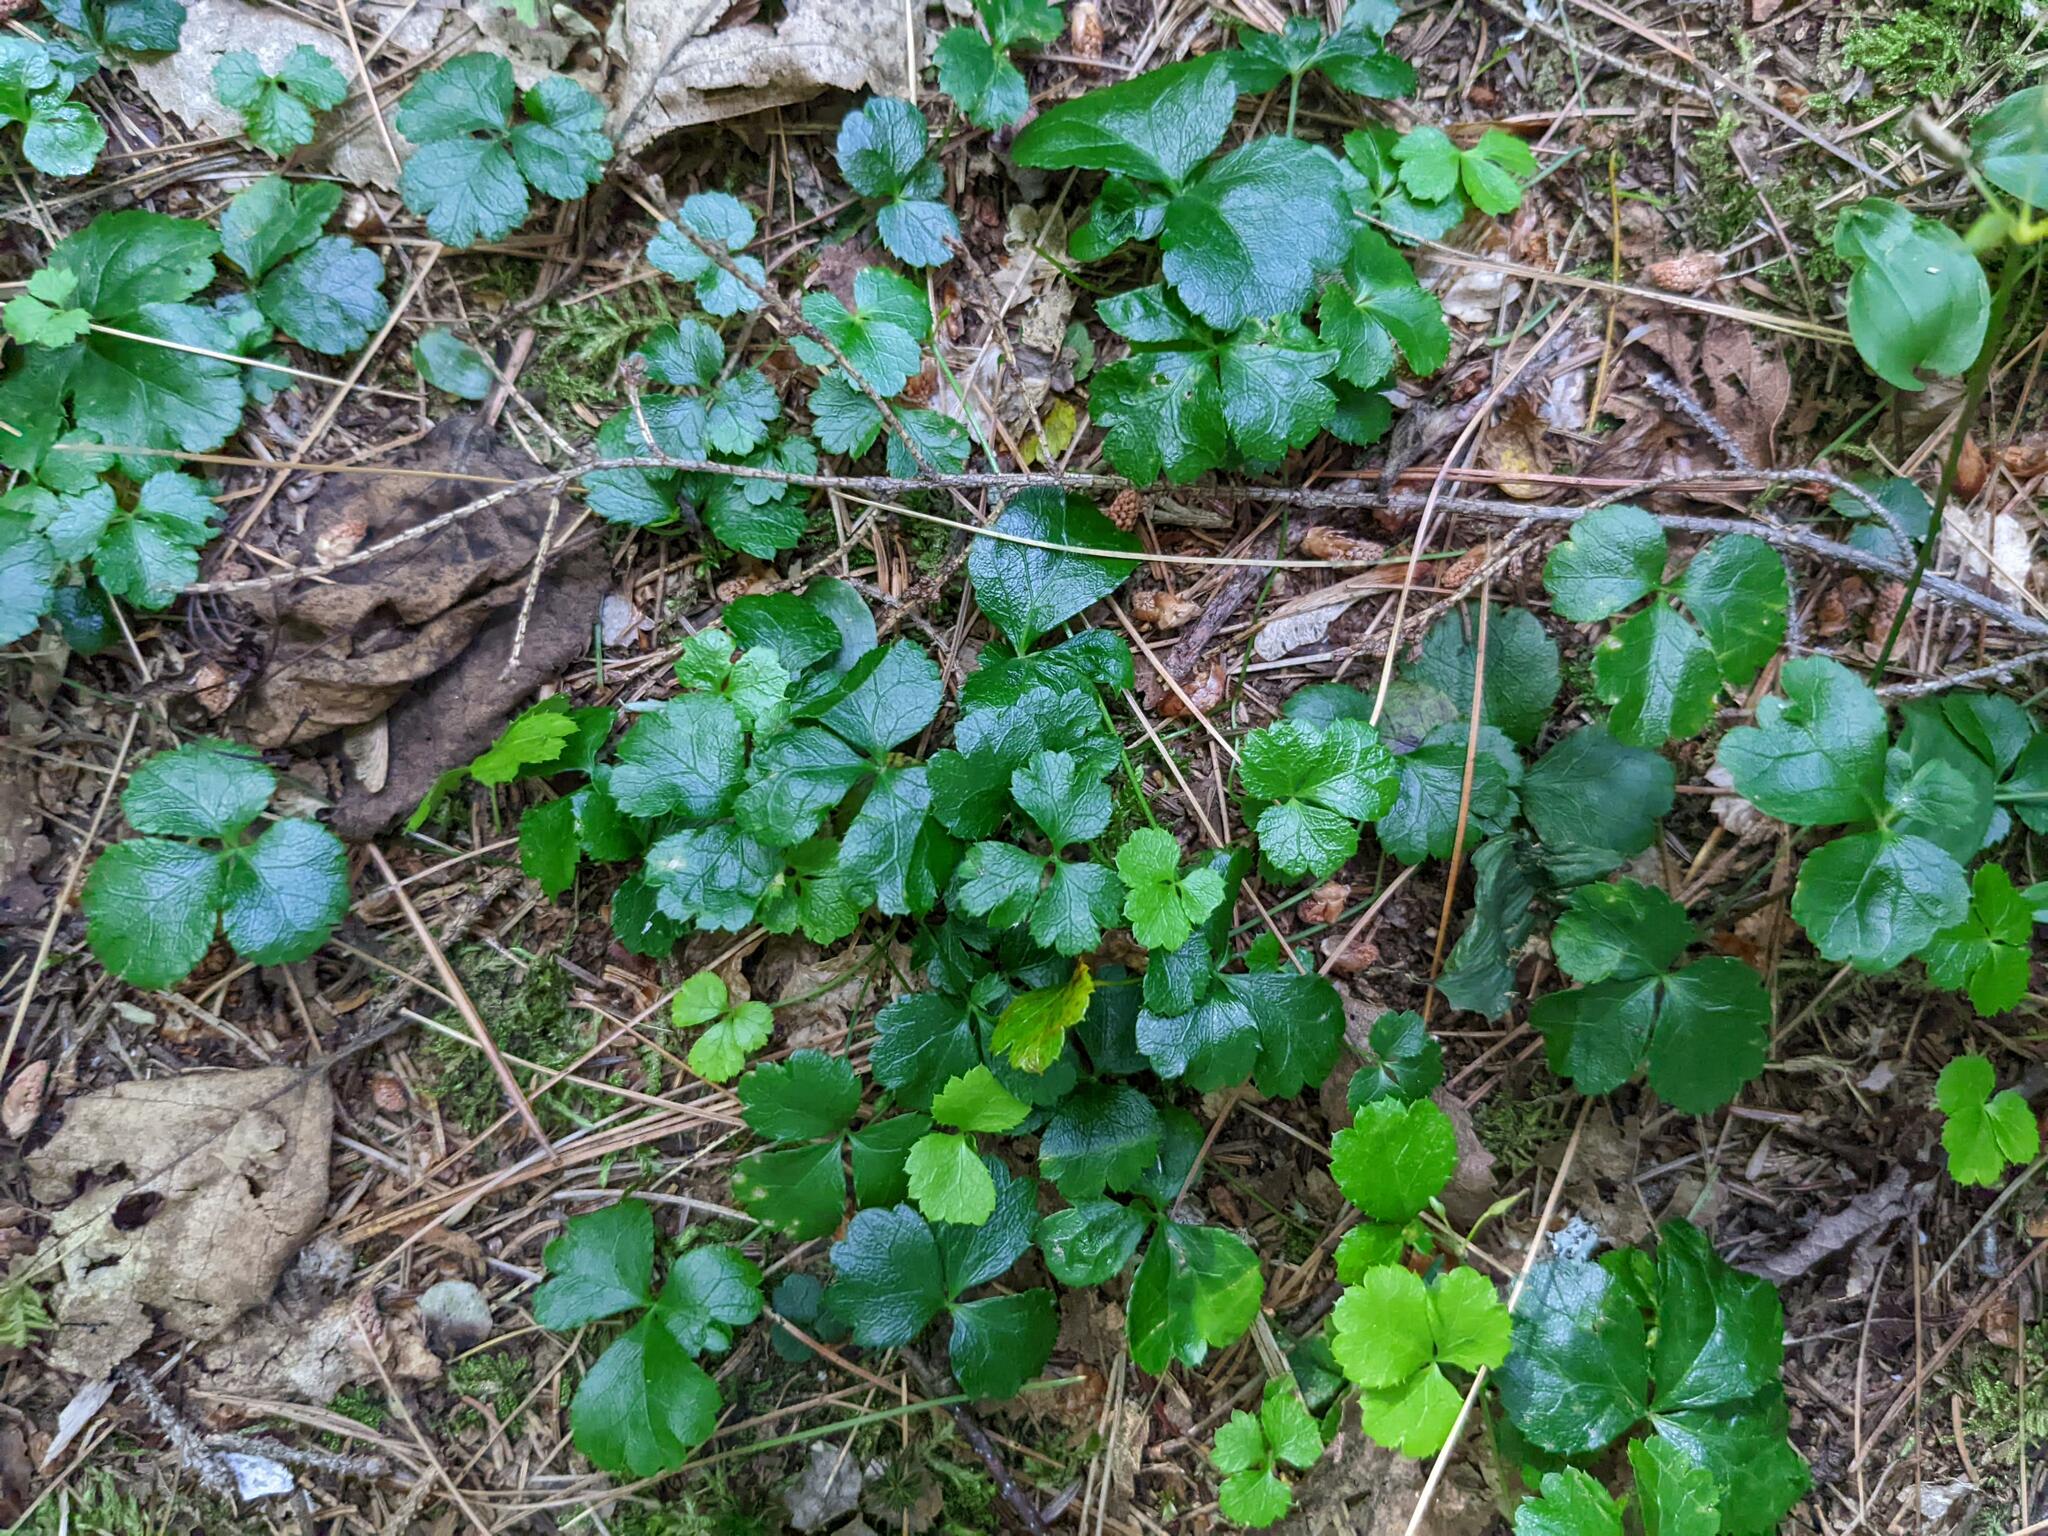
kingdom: Plantae
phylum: Tracheophyta
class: Magnoliopsida
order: Ranunculales
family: Ranunculaceae
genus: Coptis
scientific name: Coptis trifolia
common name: Canker-root
